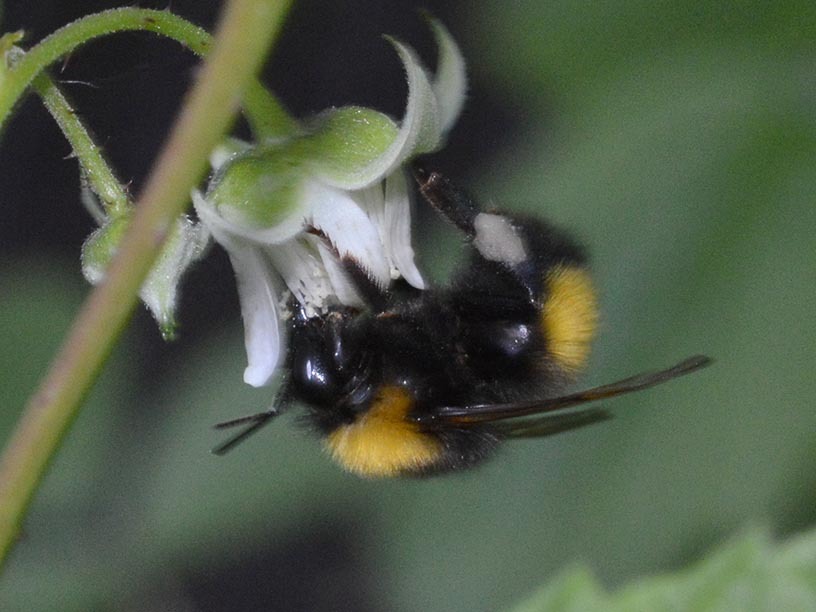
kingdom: Animalia
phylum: Arthropoda
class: Insecta
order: Hymenoptera
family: Apidae
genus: Bombus
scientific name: Bombus haematurus
